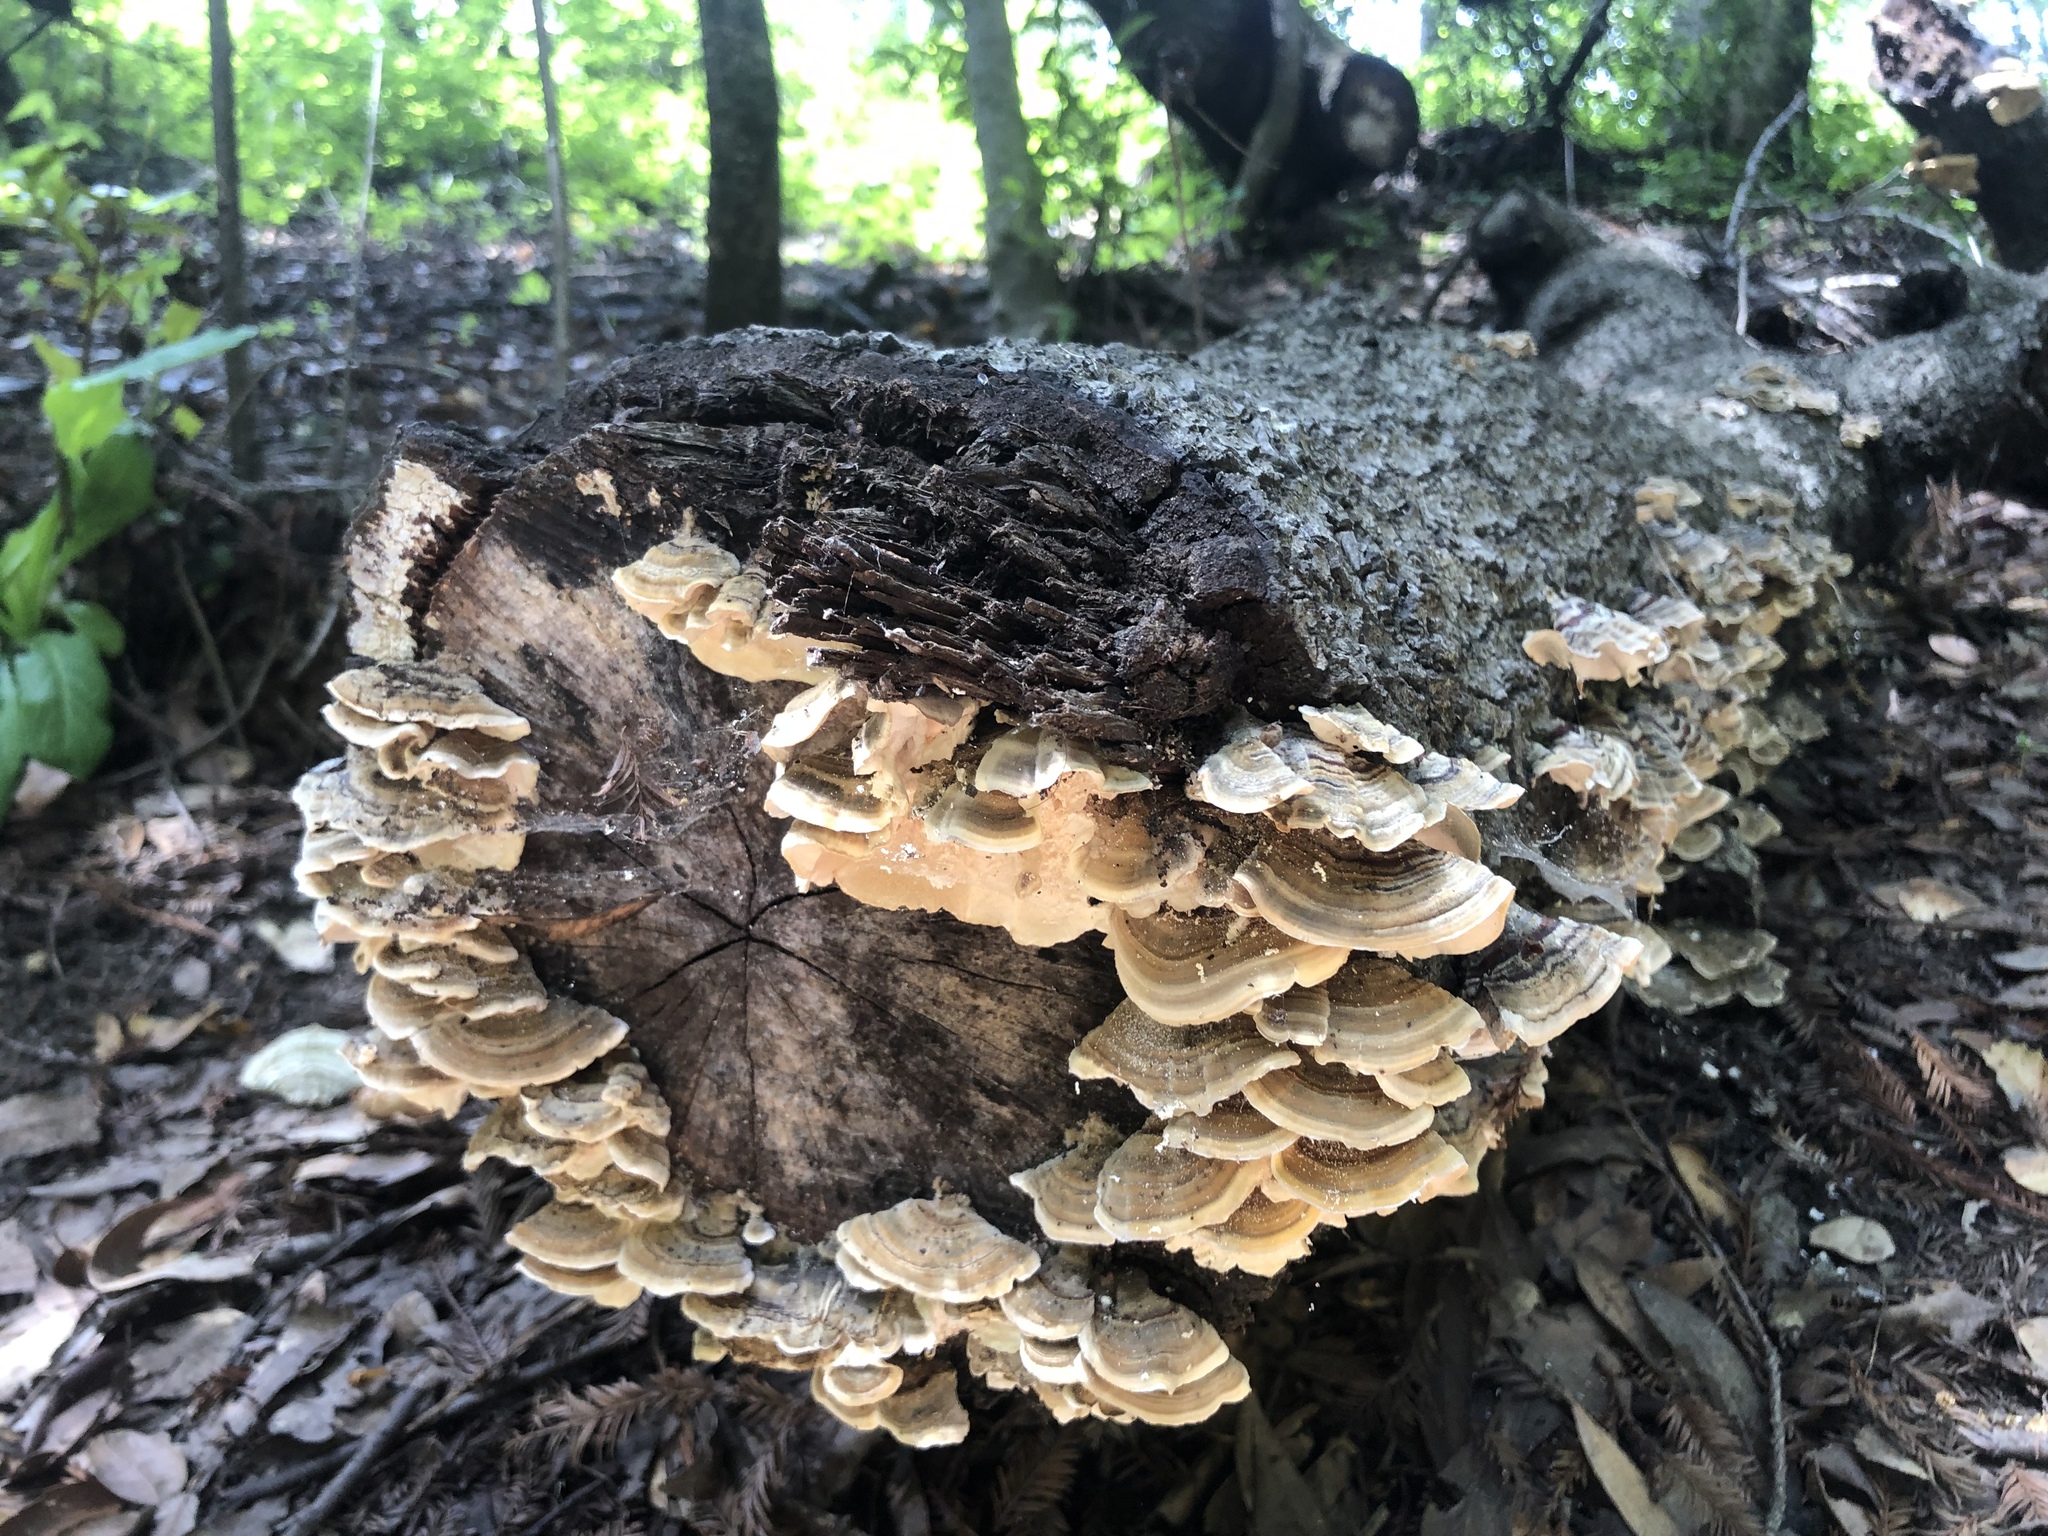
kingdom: Fungi
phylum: Basidiomycota
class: Agaricomycetes
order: Polyporales
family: Polyporaceae
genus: Trametes
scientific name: Trametes versicolor
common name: Turkeytail
